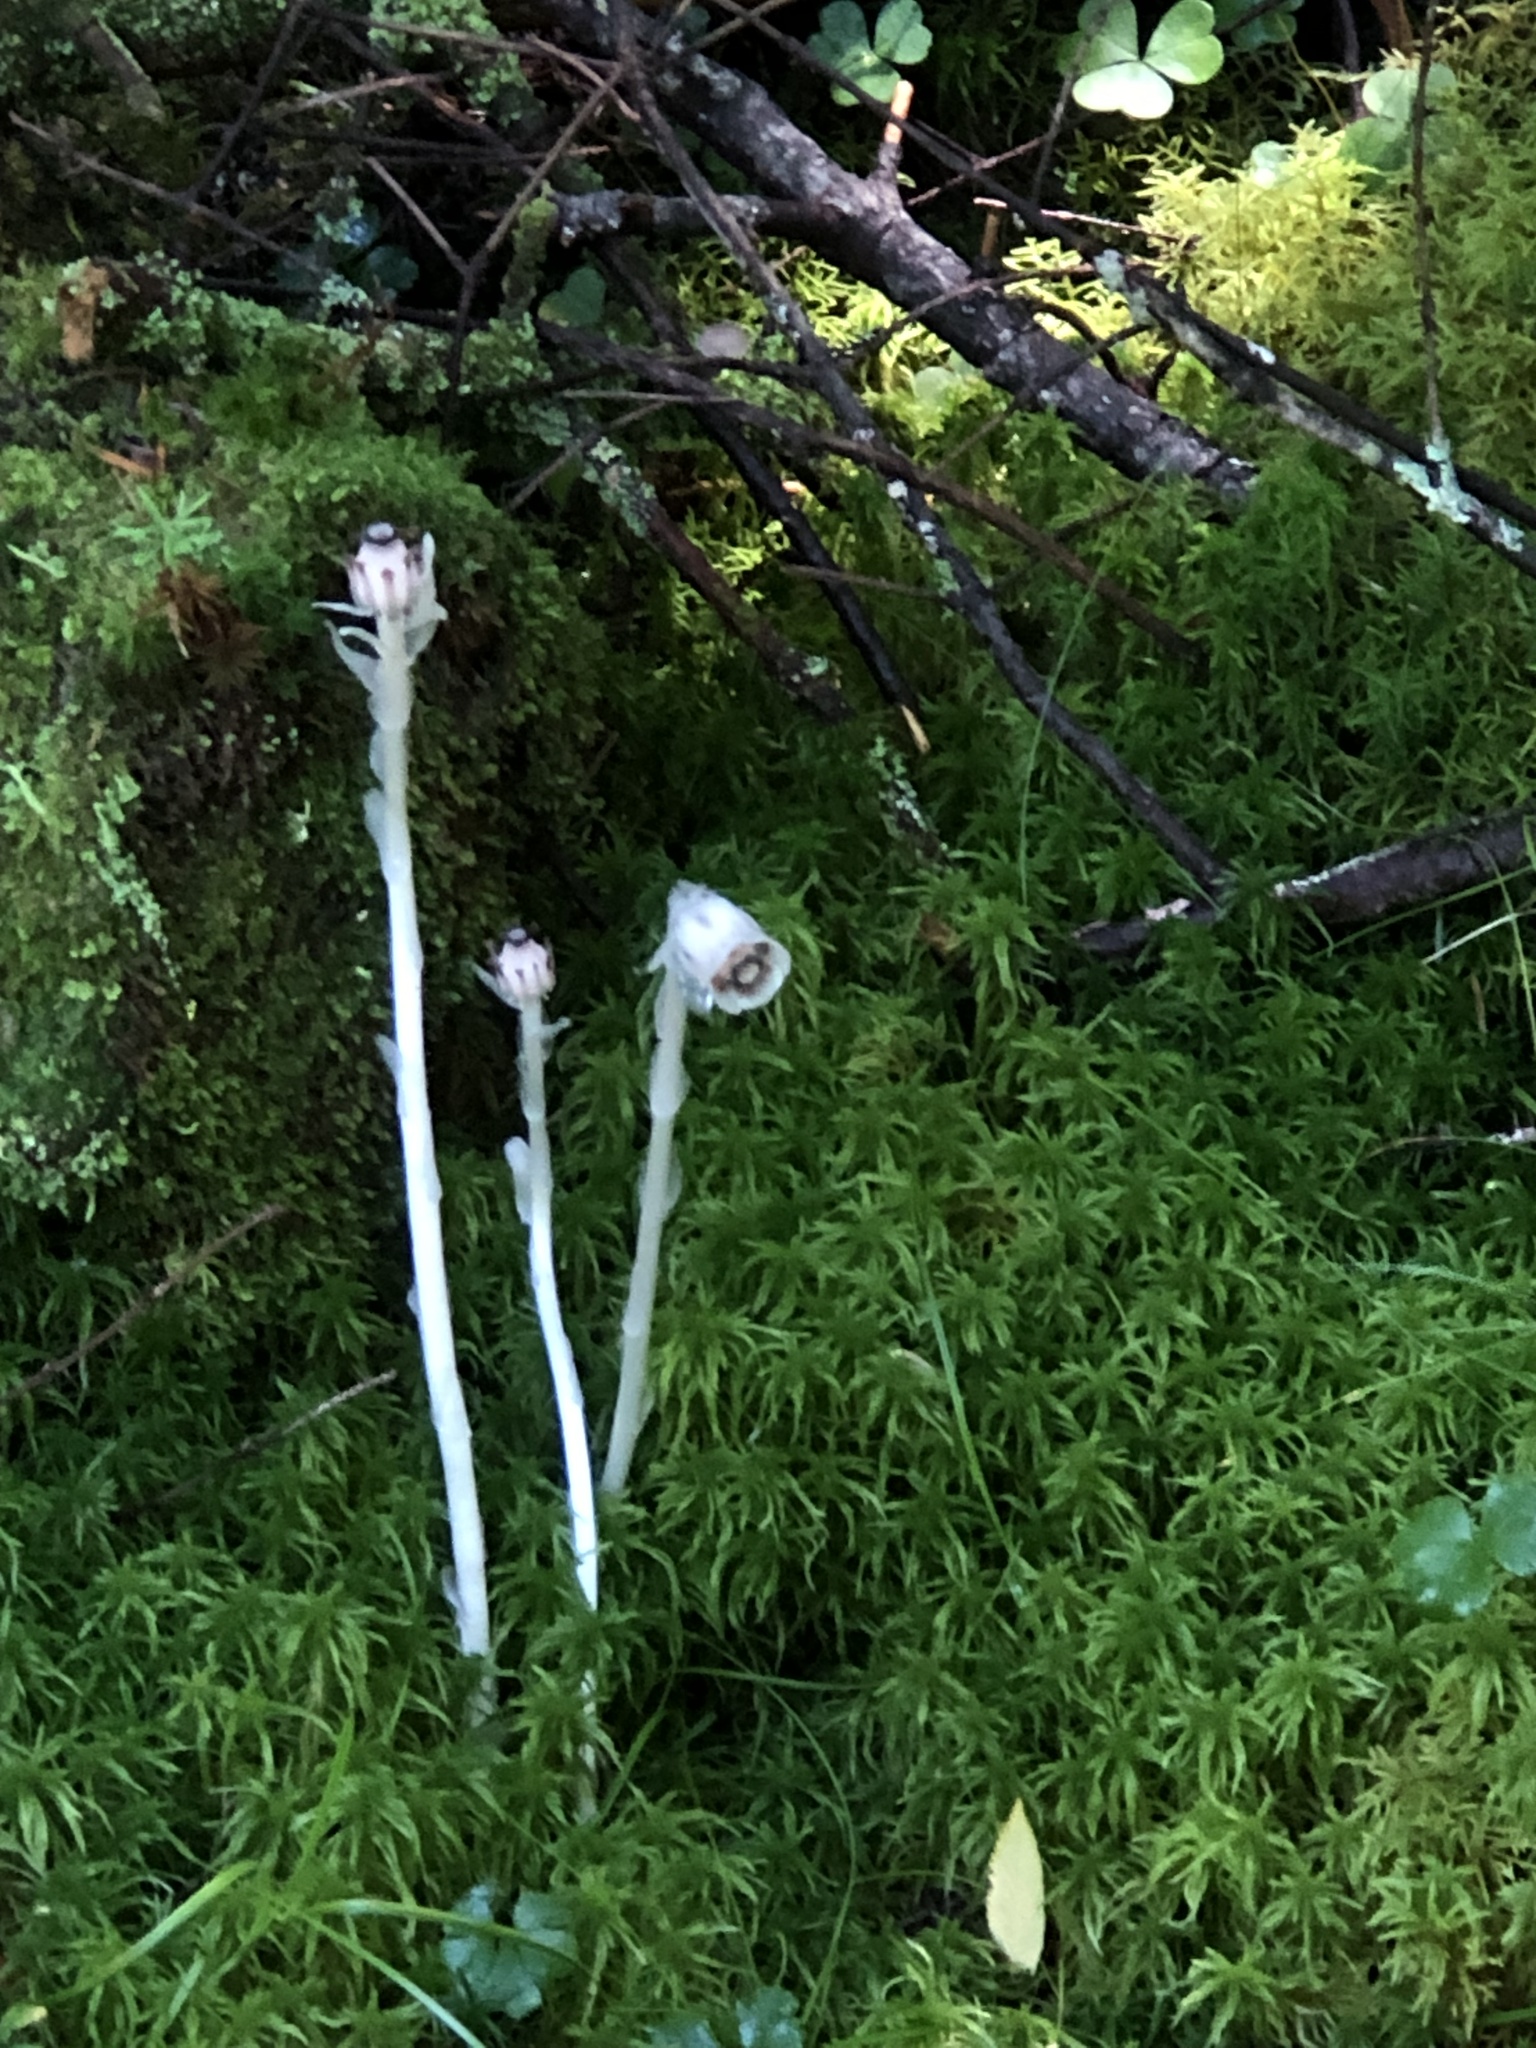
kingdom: Plantae
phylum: Tracheophyta
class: Magnoliopsida
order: Ericales
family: Ericaceae
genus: Monotropa
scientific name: Monotropa uniflora
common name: Convulsion root
